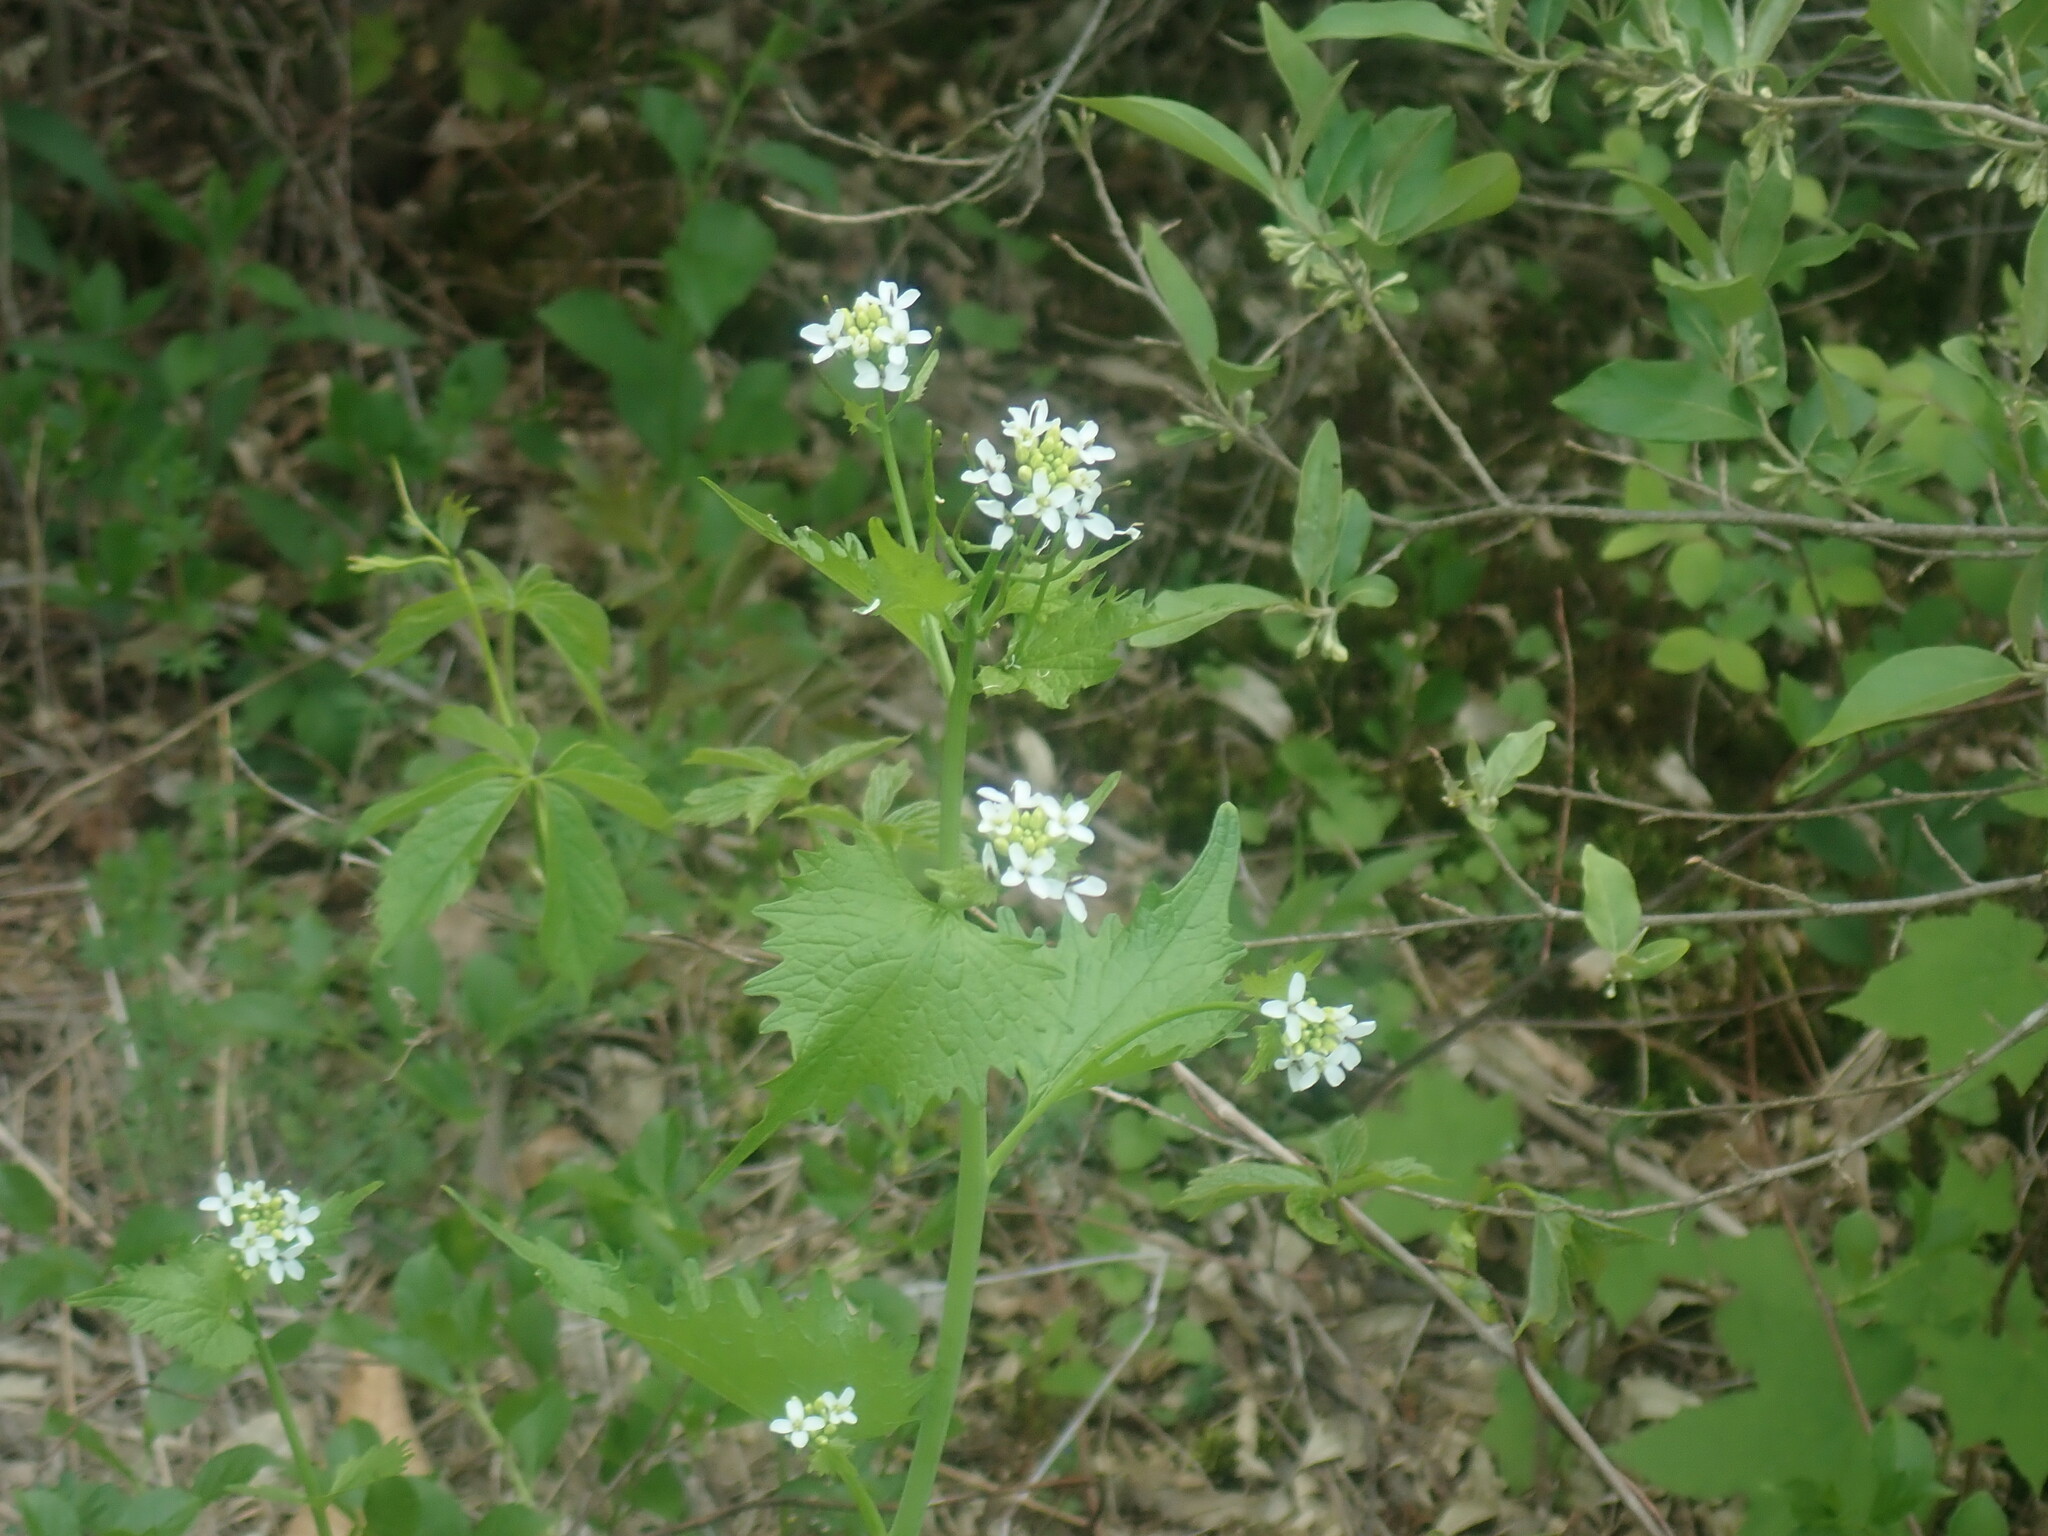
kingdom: Plantae
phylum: Tracheophyta
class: Magnoliopsida
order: Brassicales
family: Brassicaceae
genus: Alliaria
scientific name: Alliaria petiolata
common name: Garlic mustard
